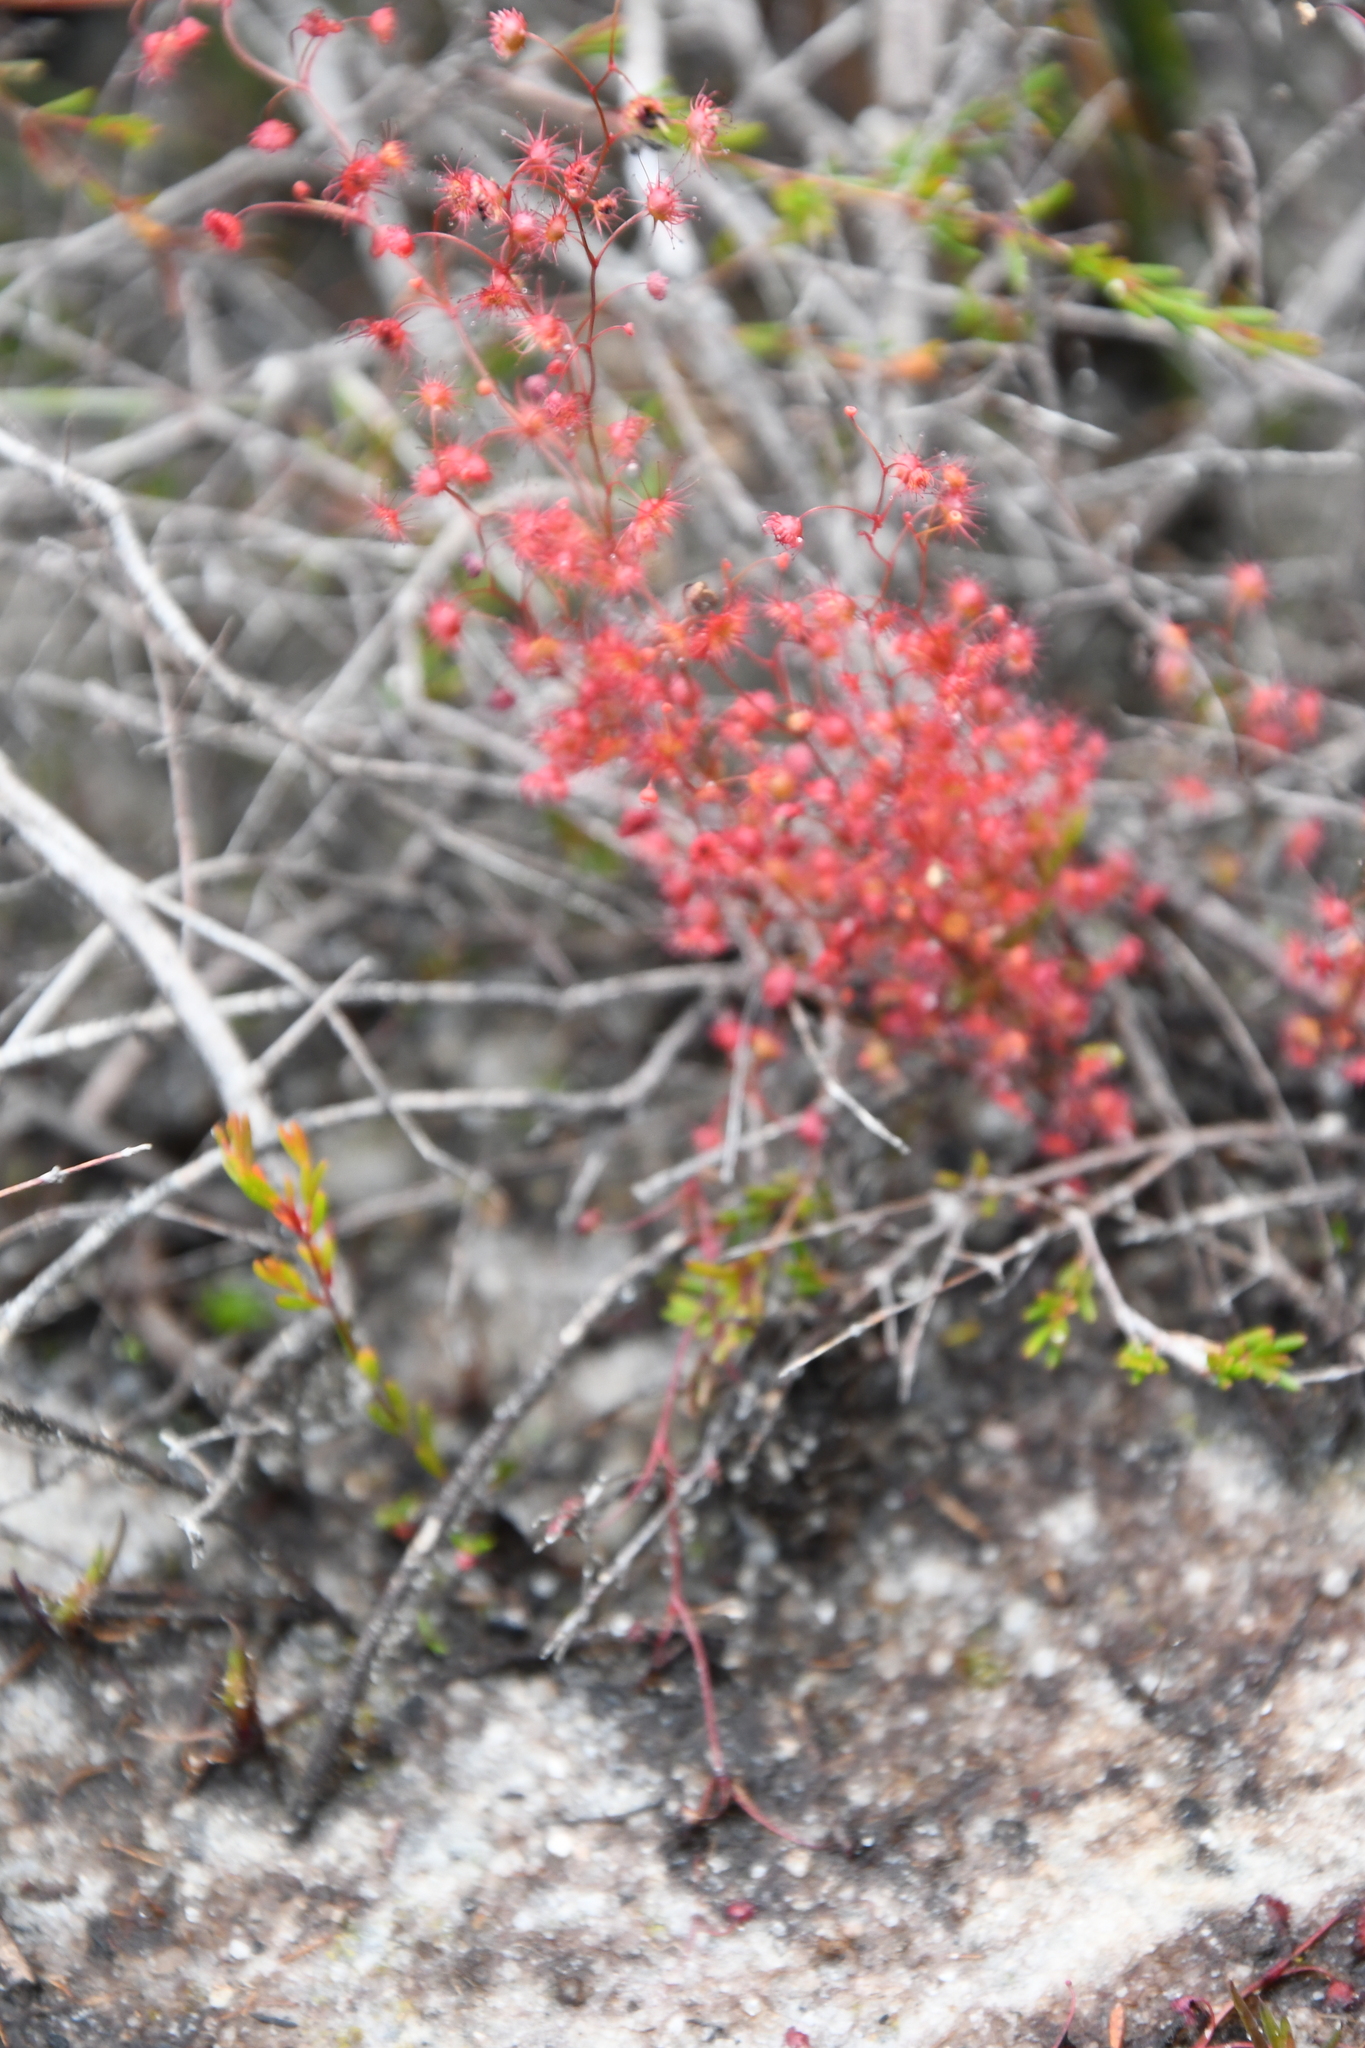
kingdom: Plantae
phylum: Tracheophyta
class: Magnoliopsida
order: Caryophyllales
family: Droseraceae
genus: Drosera
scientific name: Drosera
